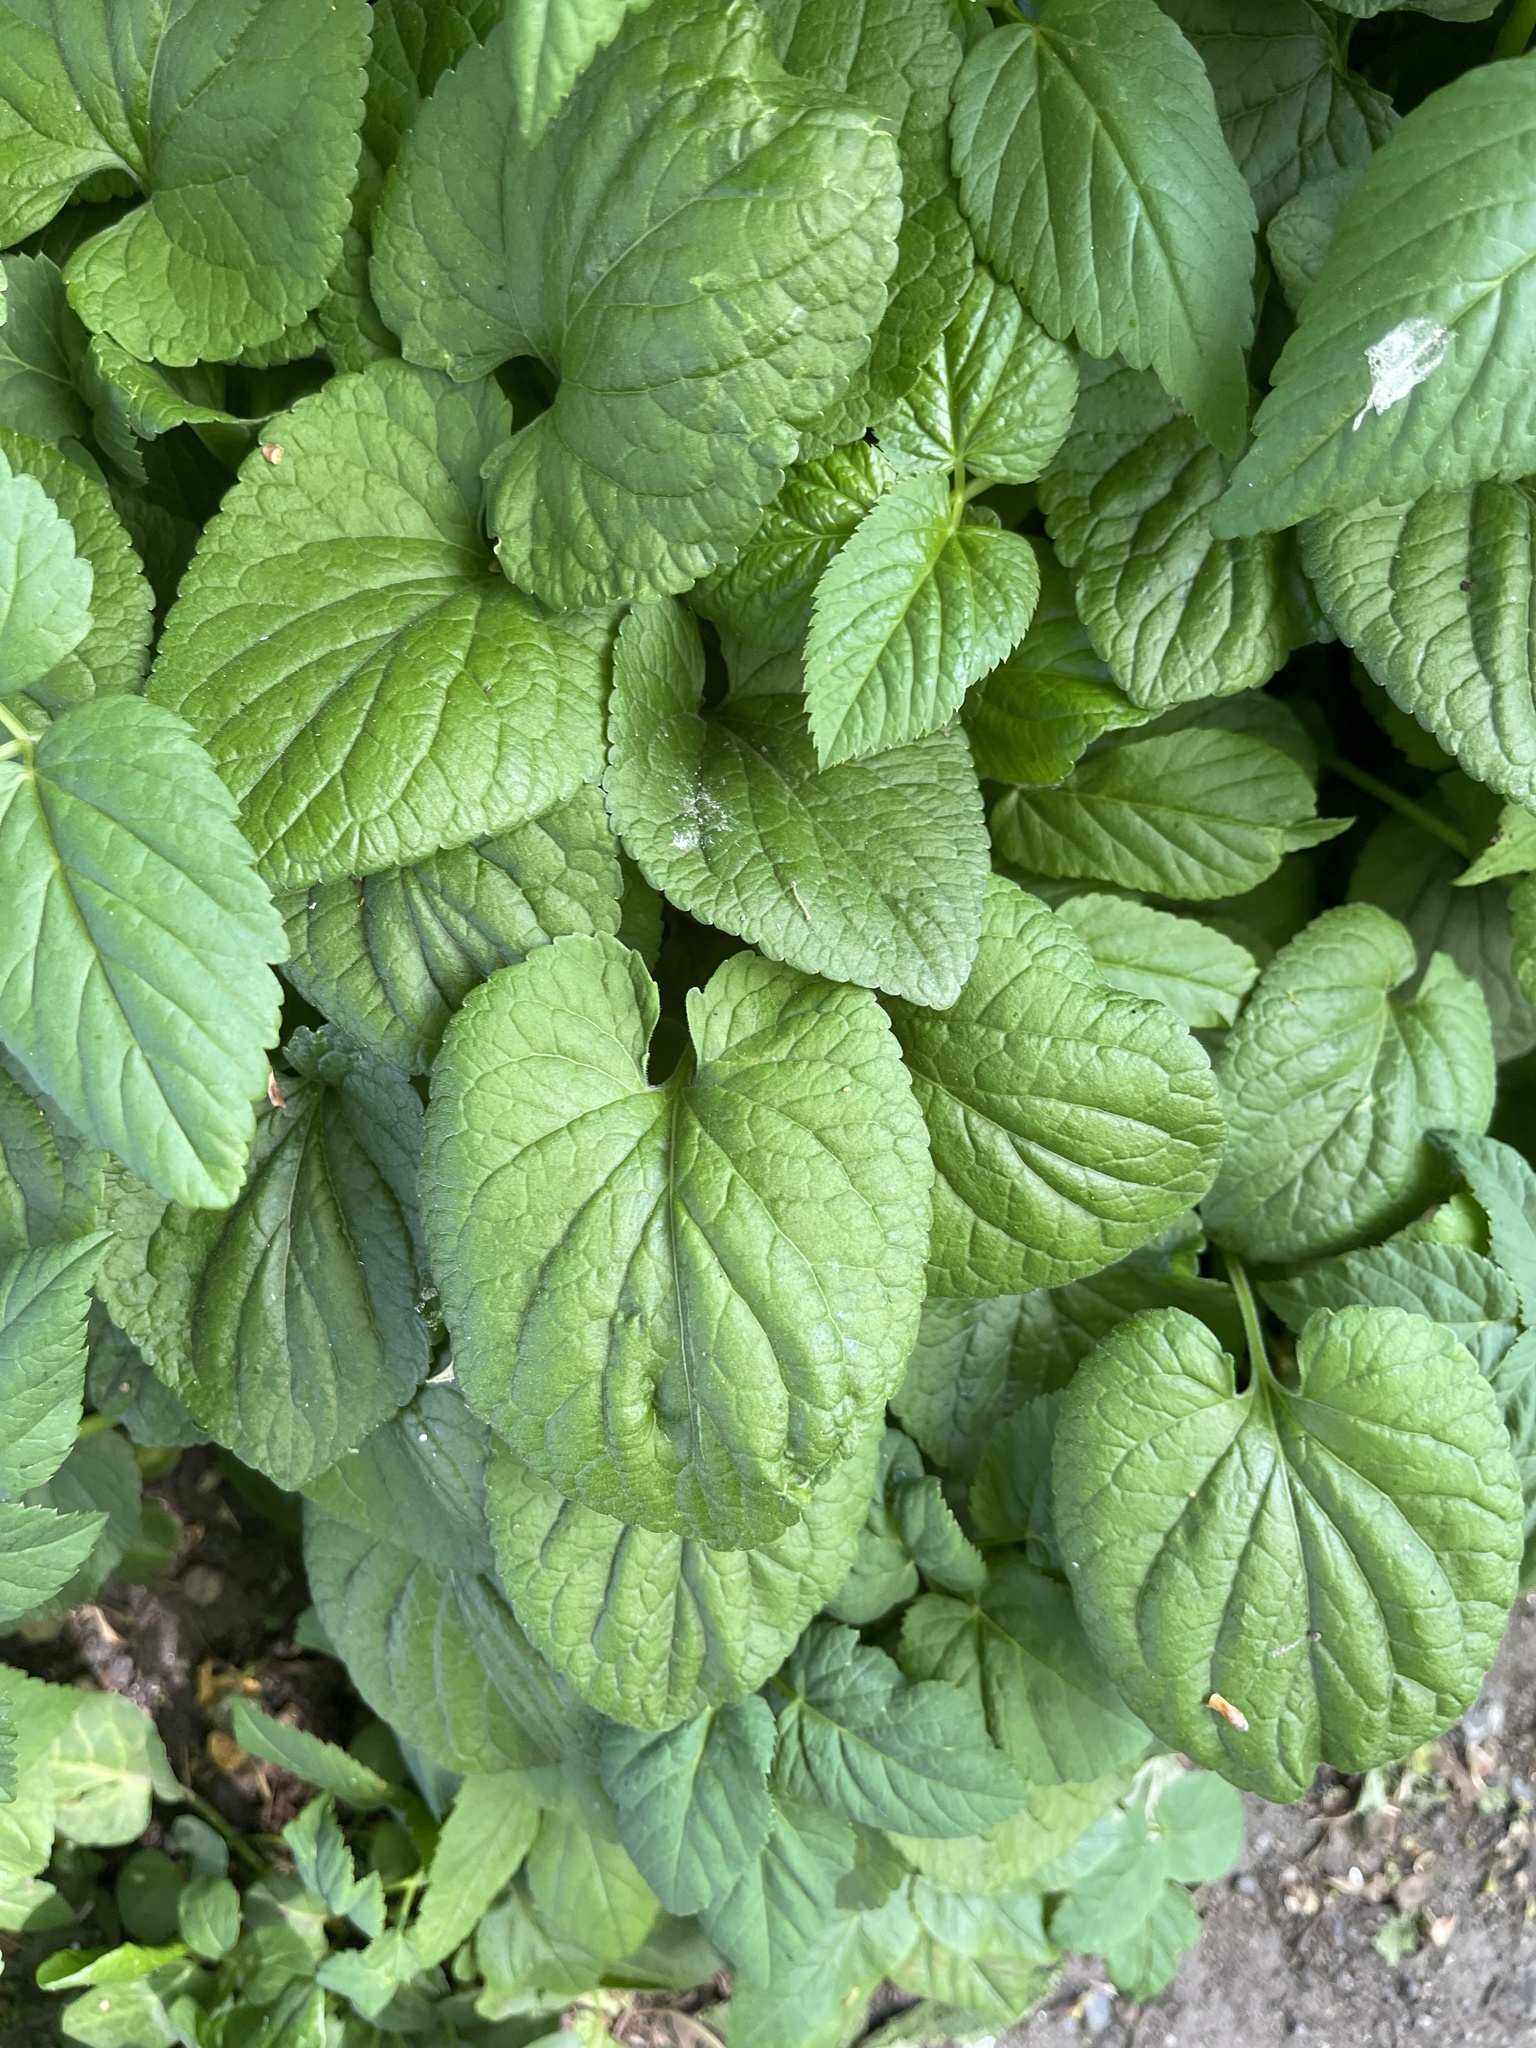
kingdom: Plantae
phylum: Tracheophyta
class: Magnoliopsida
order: Malpighiales
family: Violaceae
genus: Viola
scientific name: Viola odorata
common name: Sweet violet
